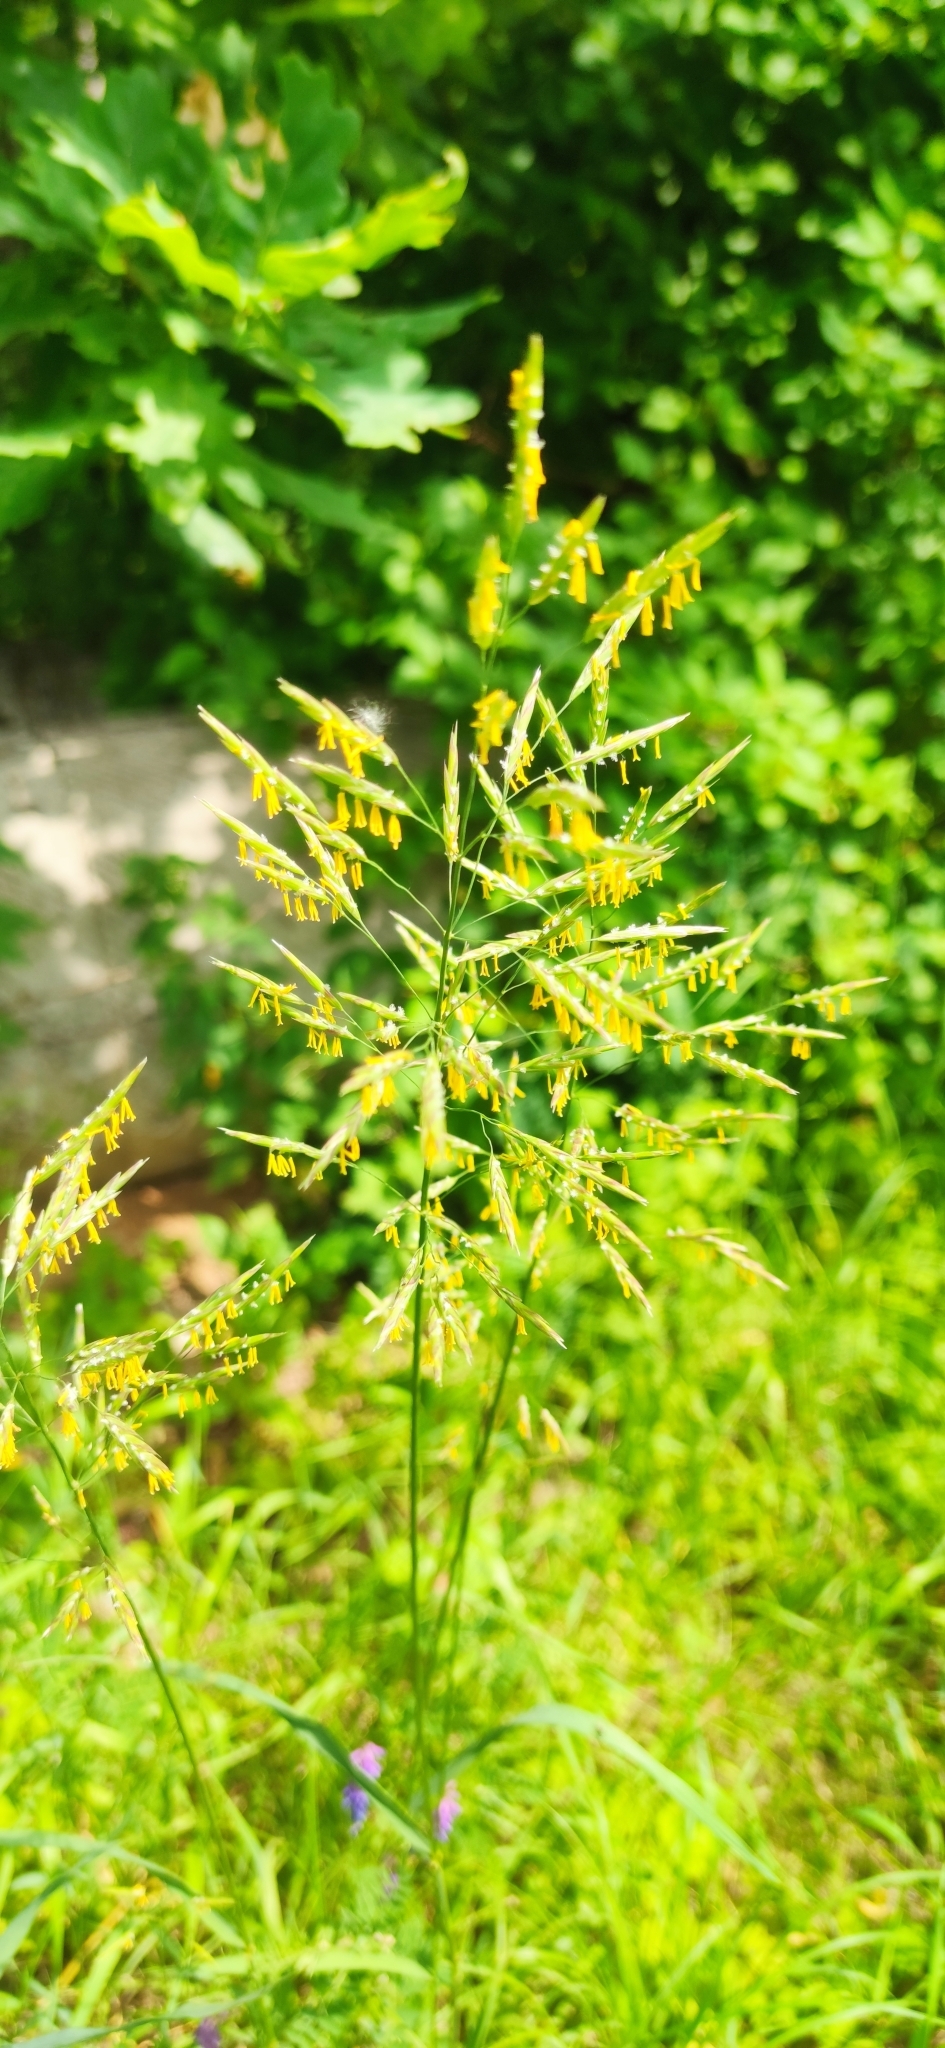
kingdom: Plantae
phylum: Tracheophyta
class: Liliopsida
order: Poales
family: Poaceae
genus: Bromus
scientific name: Bromus inermis
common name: Smooth brome
